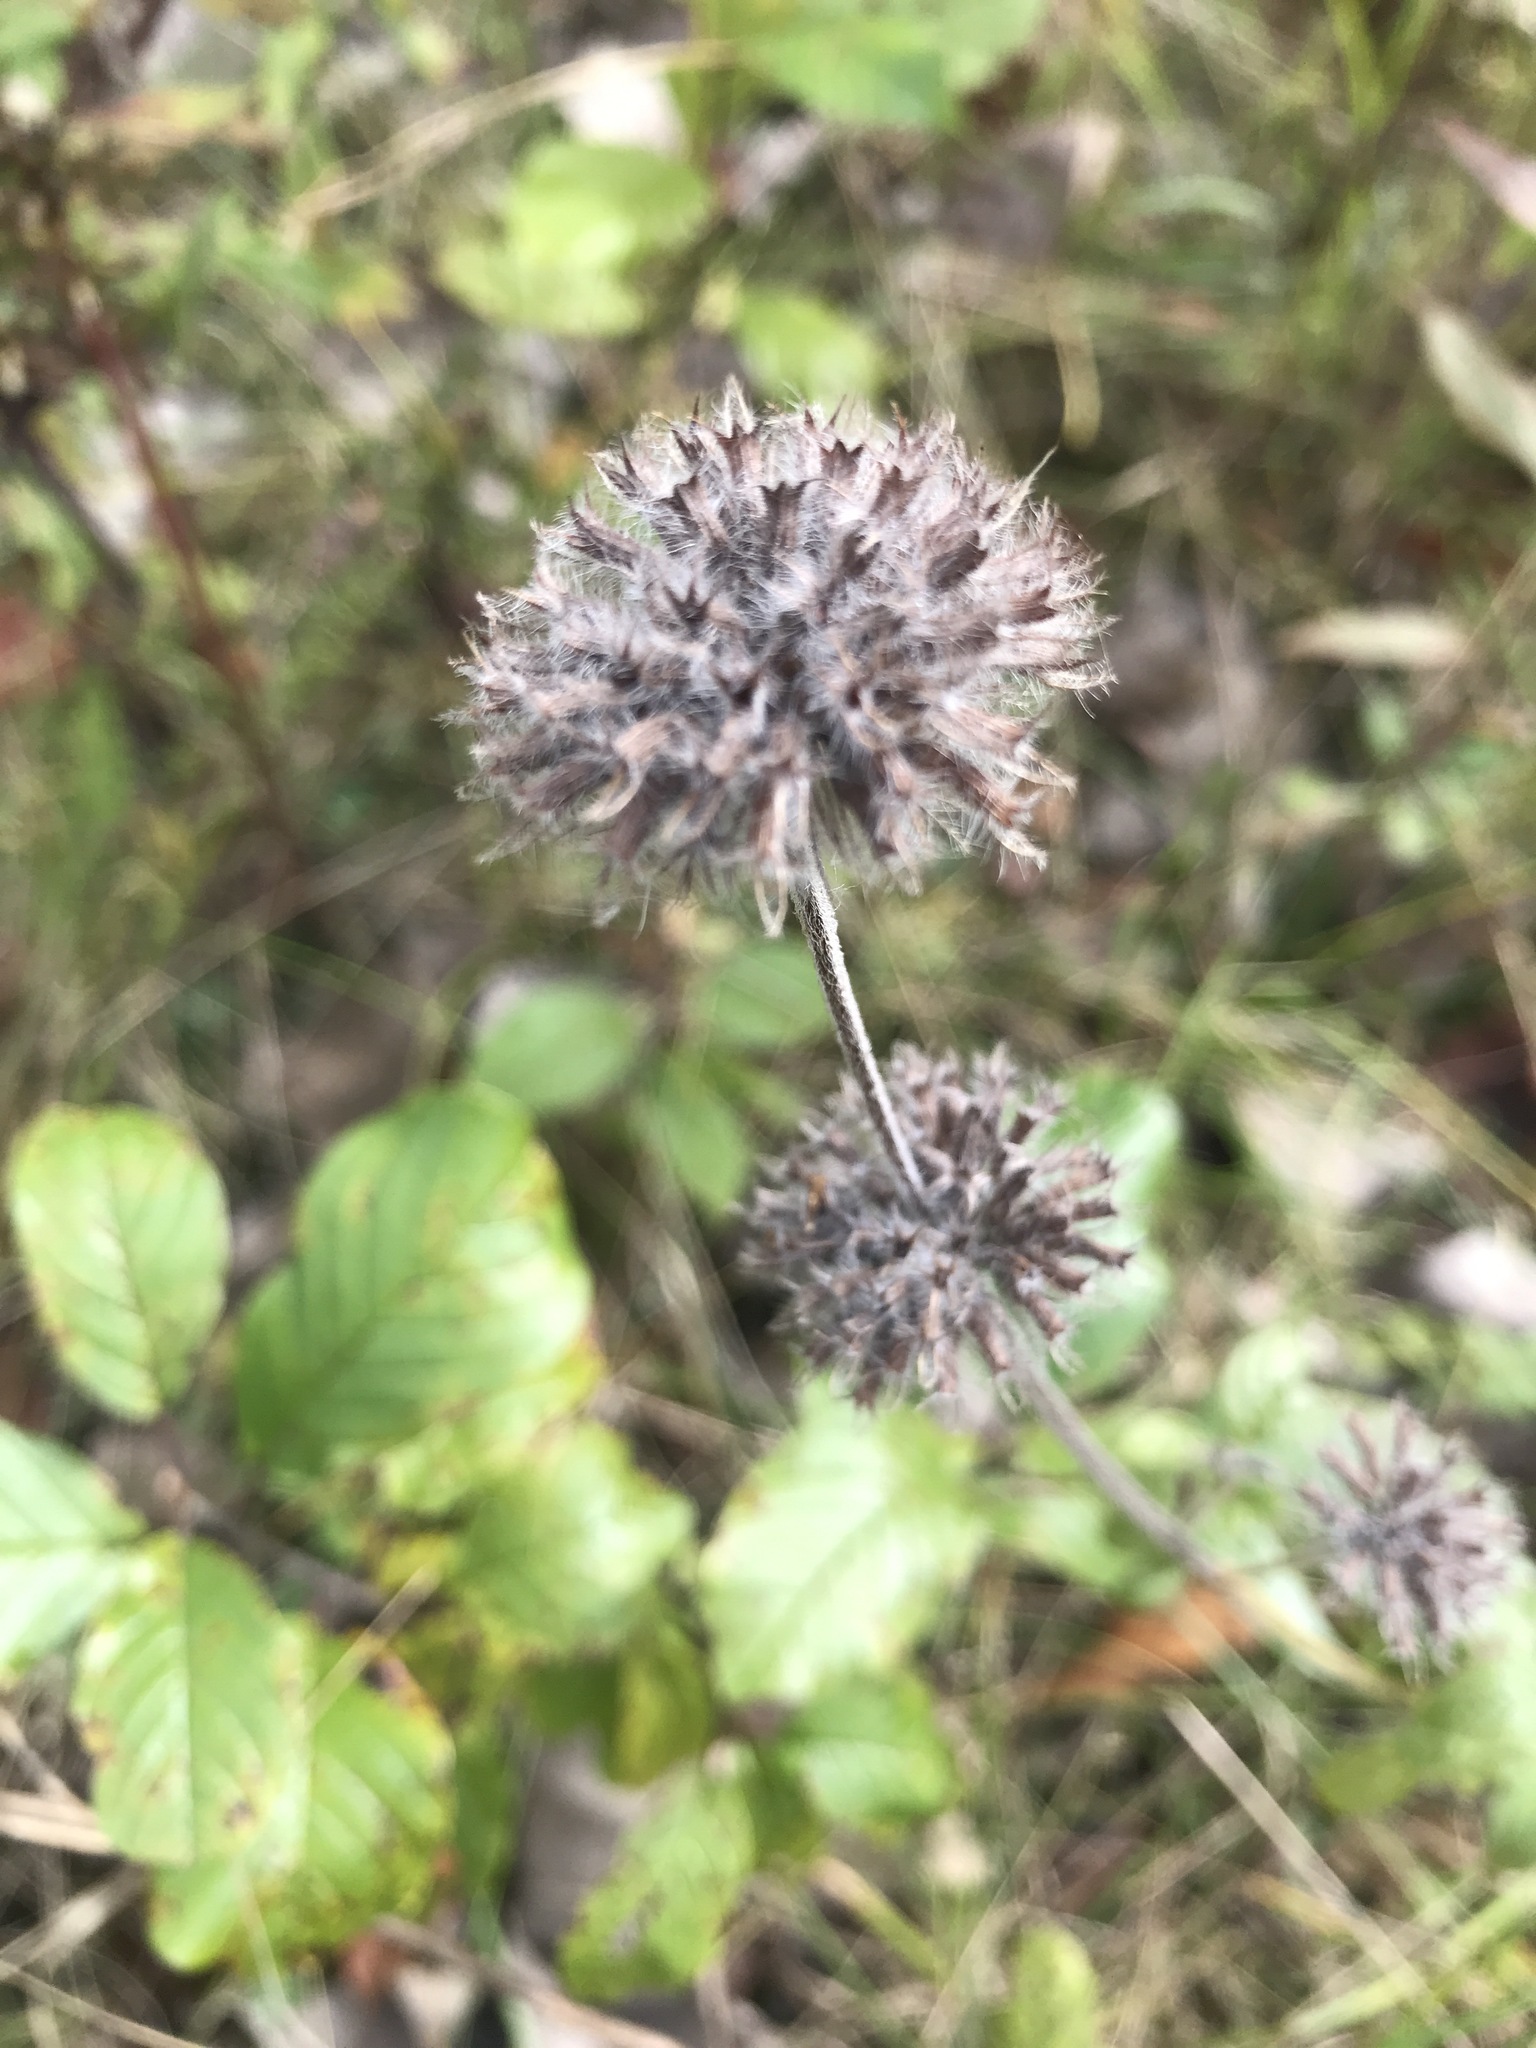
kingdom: Plantae
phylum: Tracheophyta
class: Magnoliopsida
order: Lamiales
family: Lamiaceae
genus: Clinopodium
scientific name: Clinopodium vulgare
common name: Wild basil
